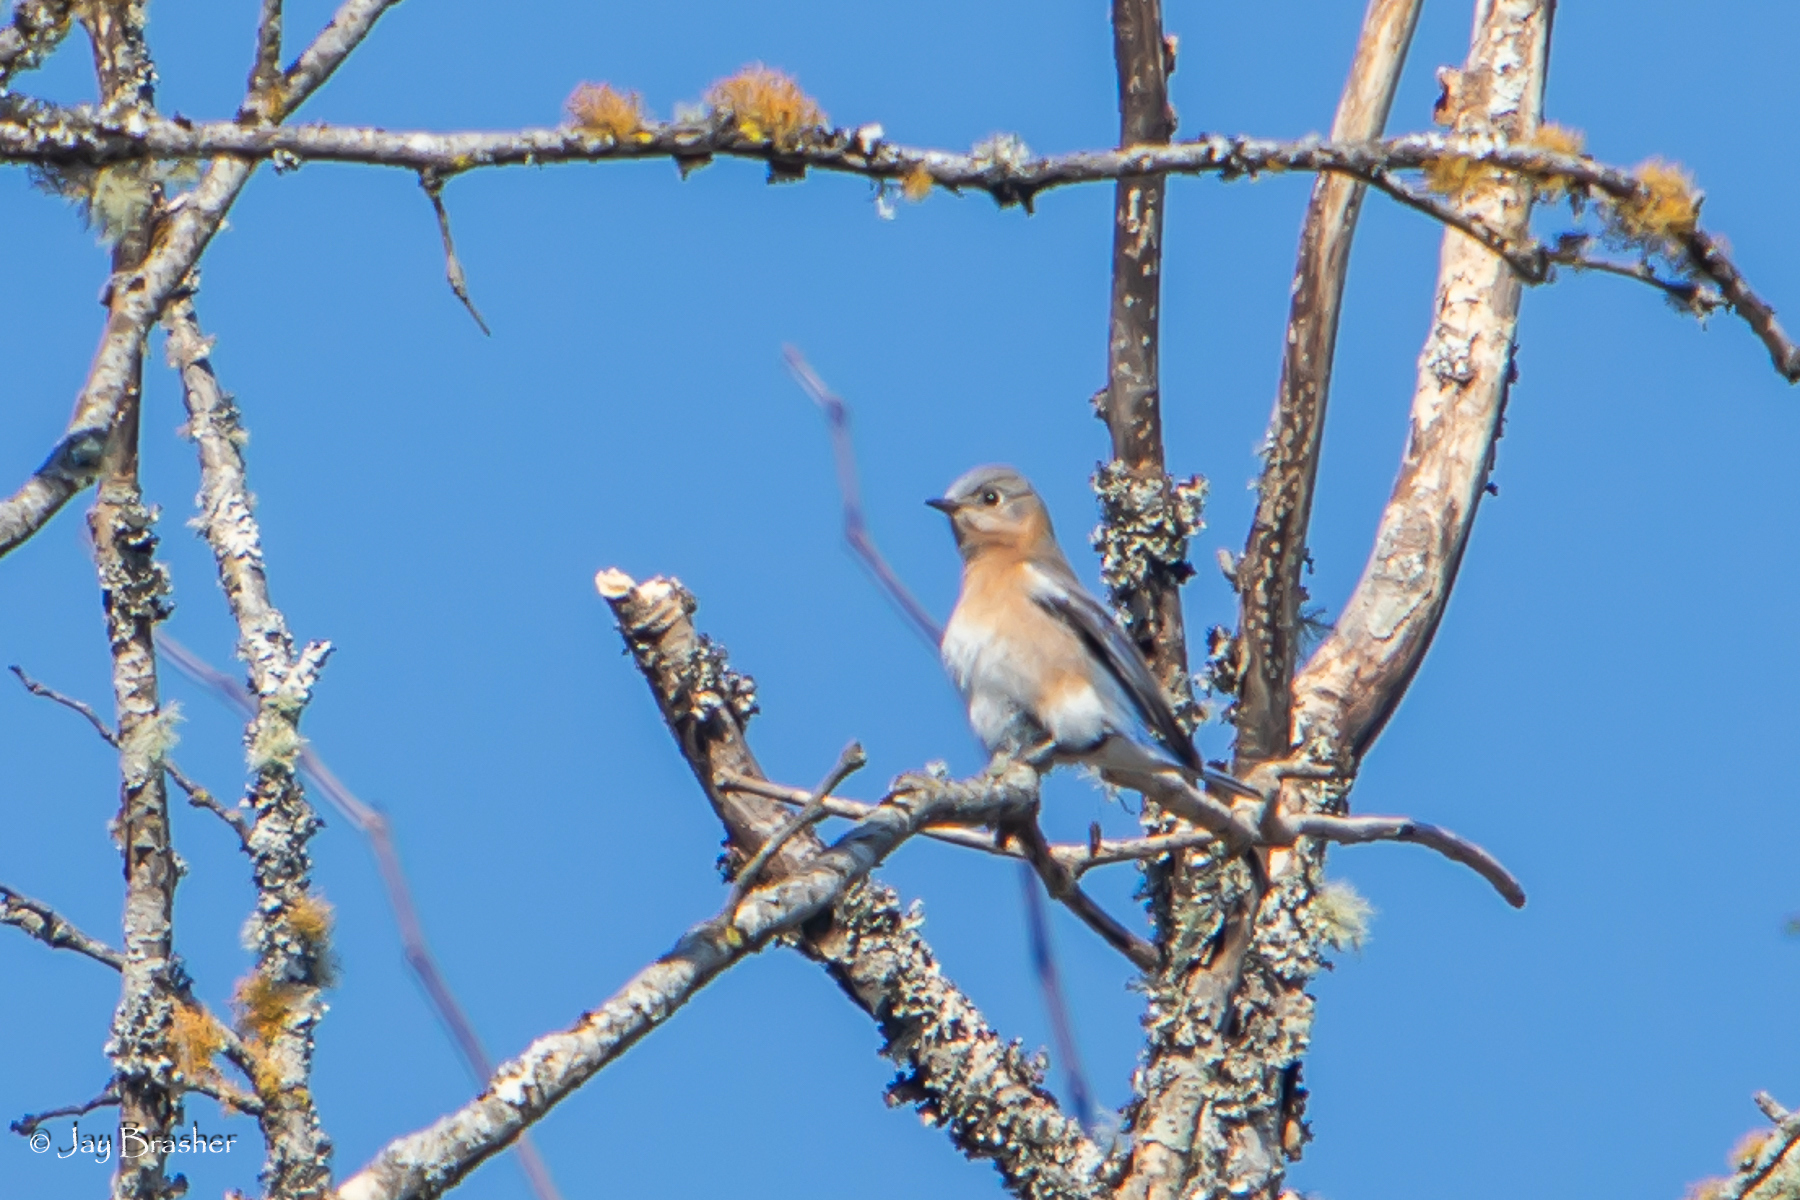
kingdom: Animalia
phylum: Chordata
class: Aves
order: Passeriformes
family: Turdidae
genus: Sialia
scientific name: Sialia sialis
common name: Eastern bluebird
